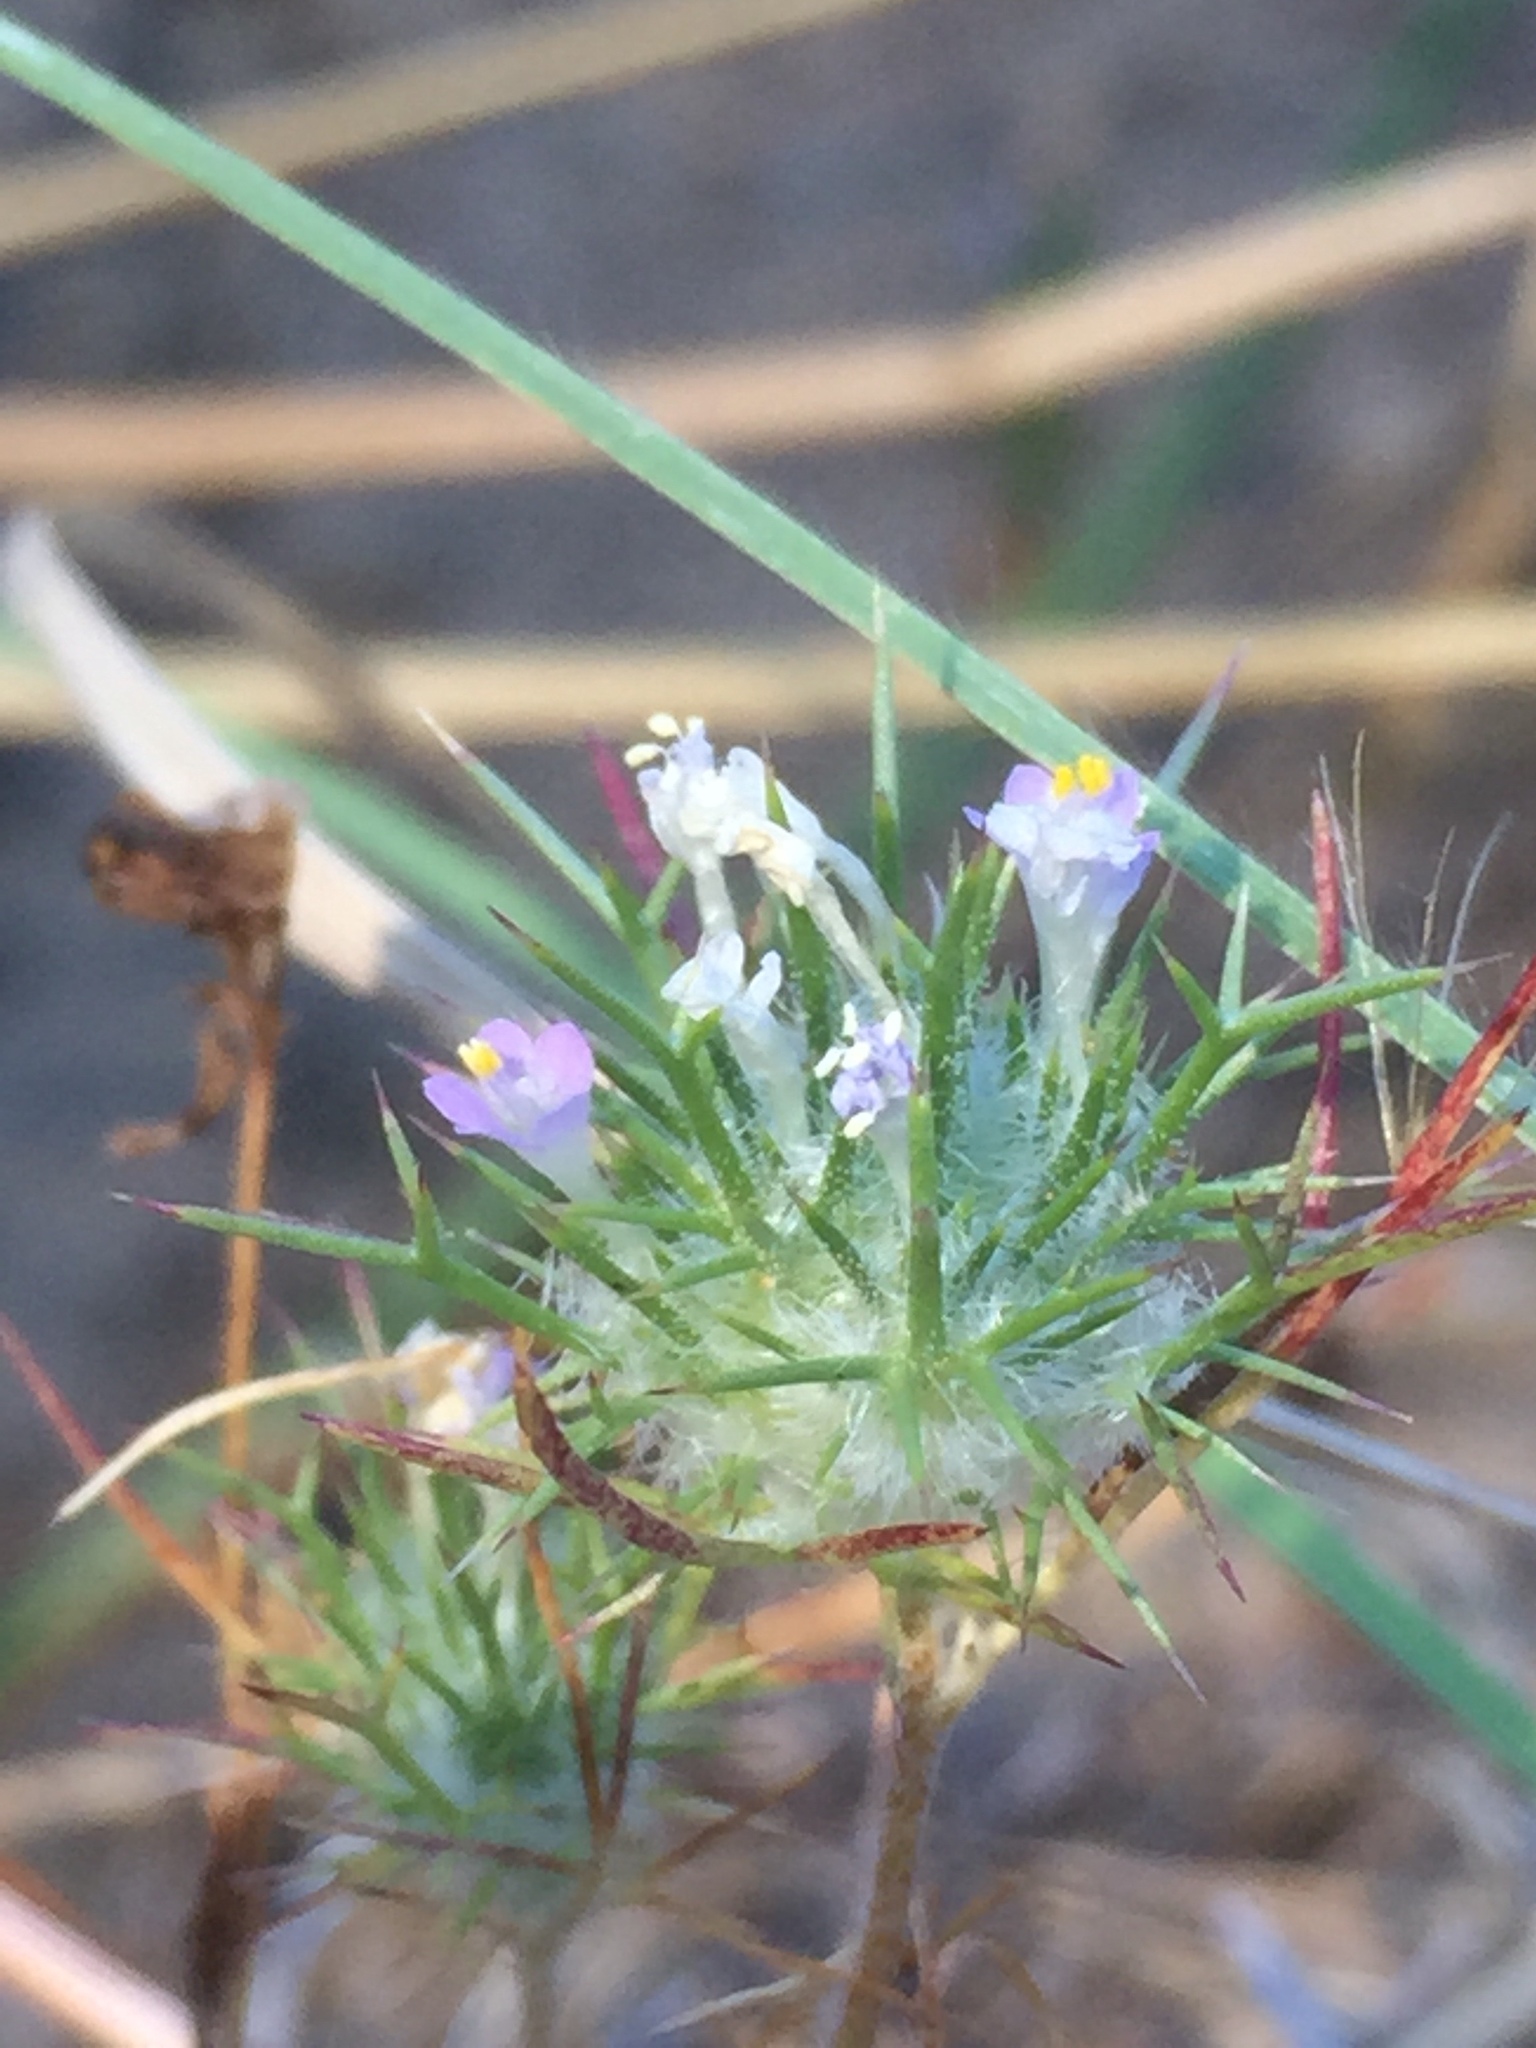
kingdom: Plantae
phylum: Tracheophyta
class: Magnoliopsida
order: Ericales
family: Polemoniaceae
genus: Navarretia
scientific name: Navarretia intertexta
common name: Needle-leaved navarretia
